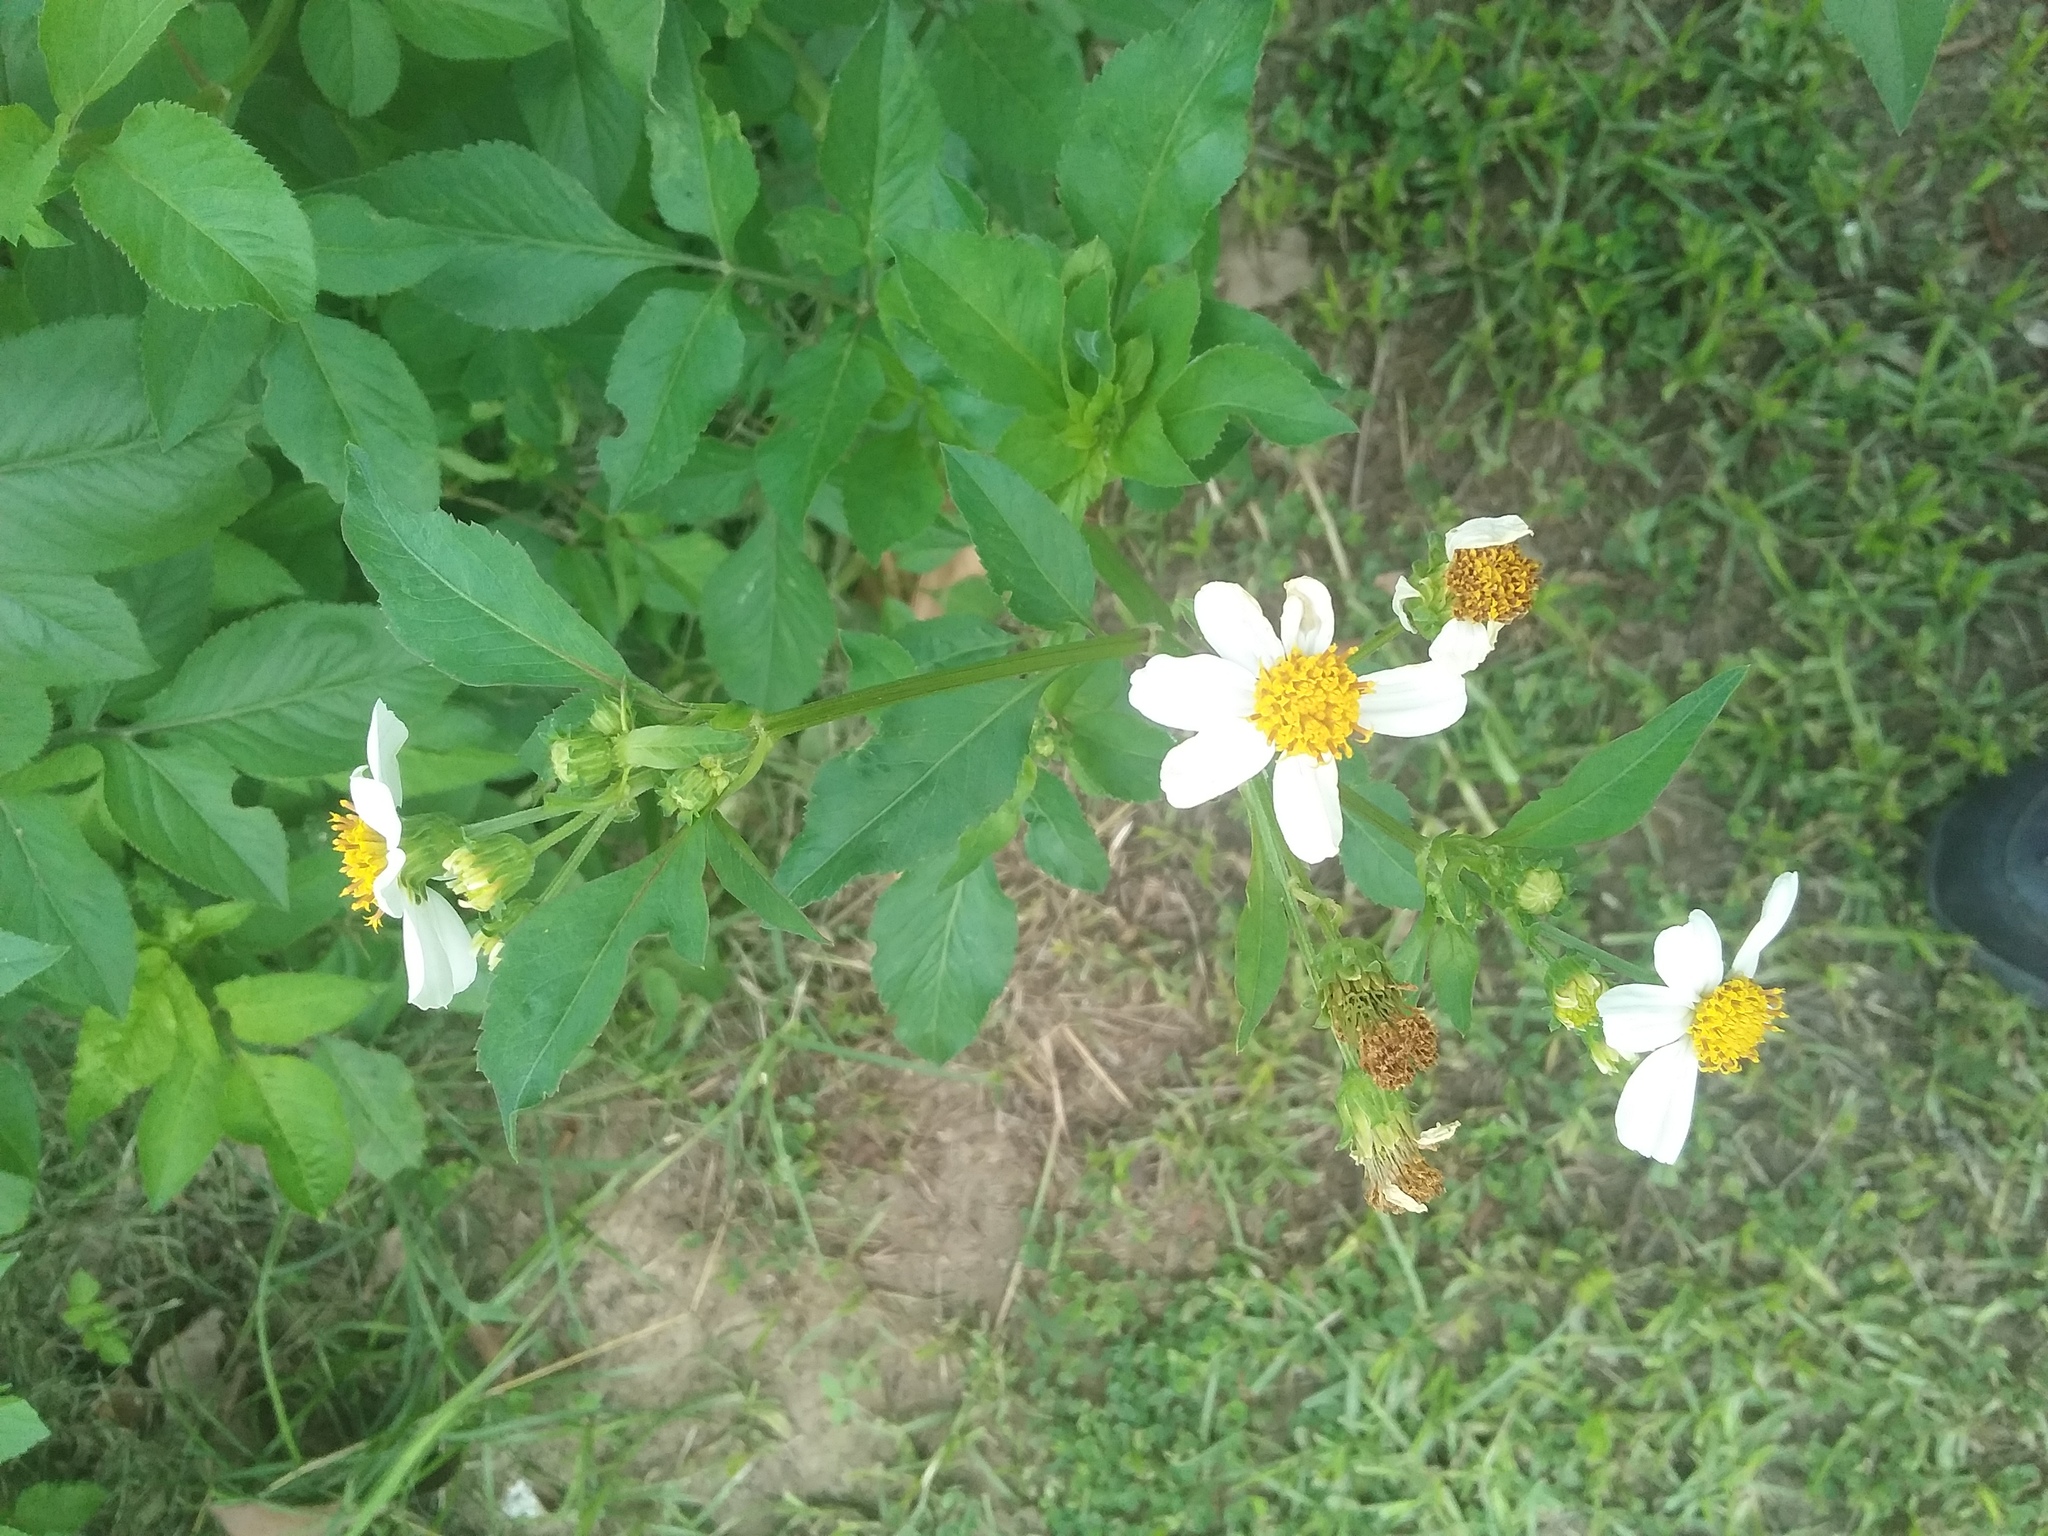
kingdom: Plantae
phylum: Tracheophyta
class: Magnoliopsida
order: Asterales
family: Asteraceae
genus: Bidens
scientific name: Bidens alba
